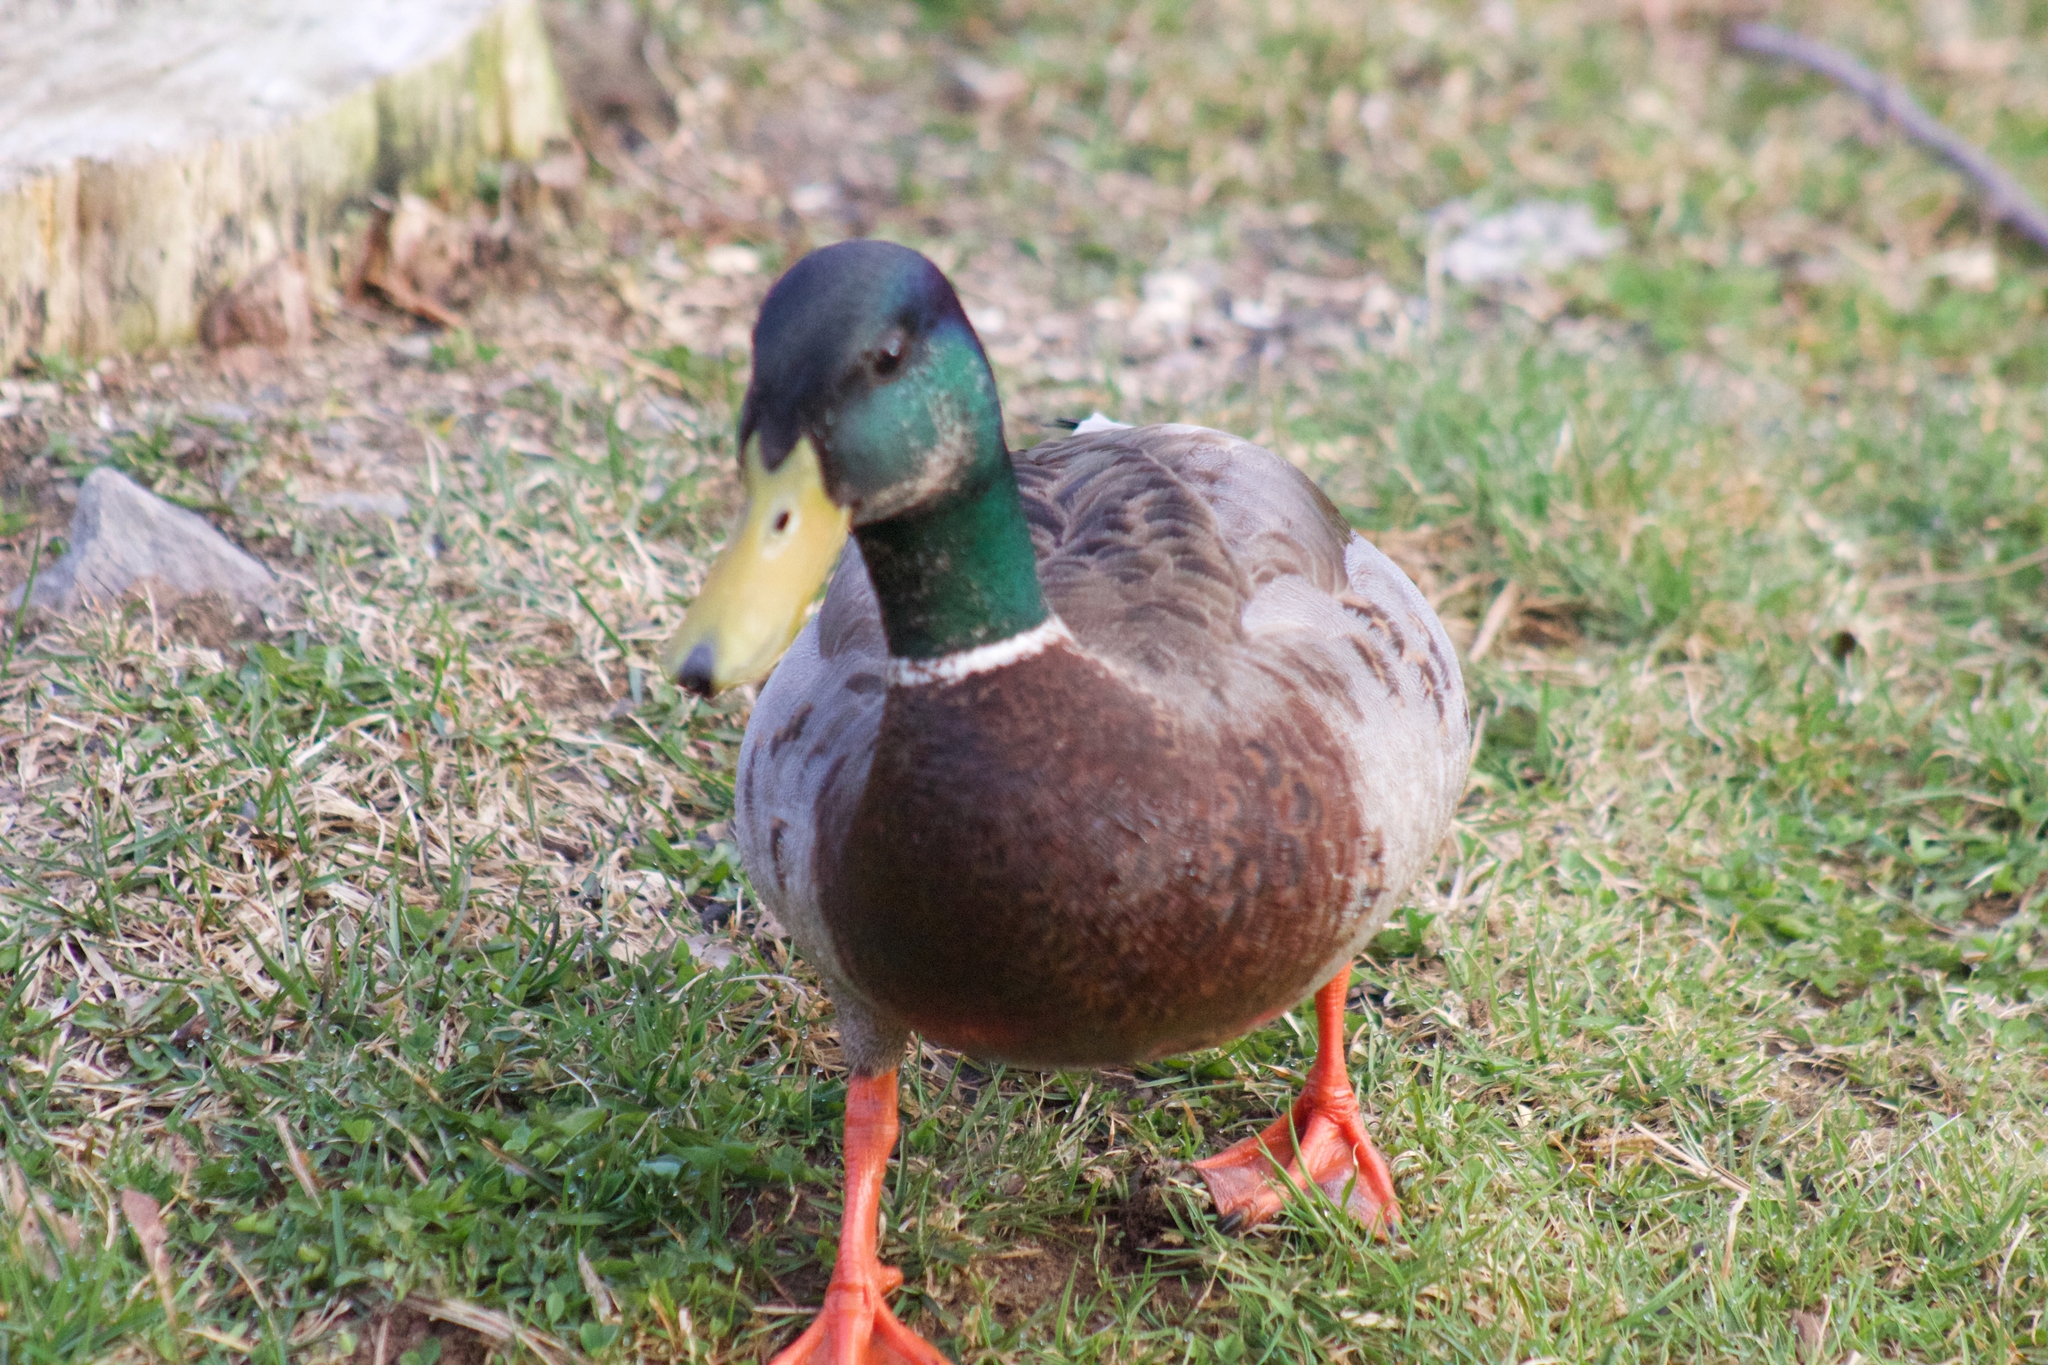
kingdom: Animalia
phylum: Chordata
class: Aves
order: Anseriformes
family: Anatidae
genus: Anas
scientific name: Anas platyrhynchos
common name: Mallard
